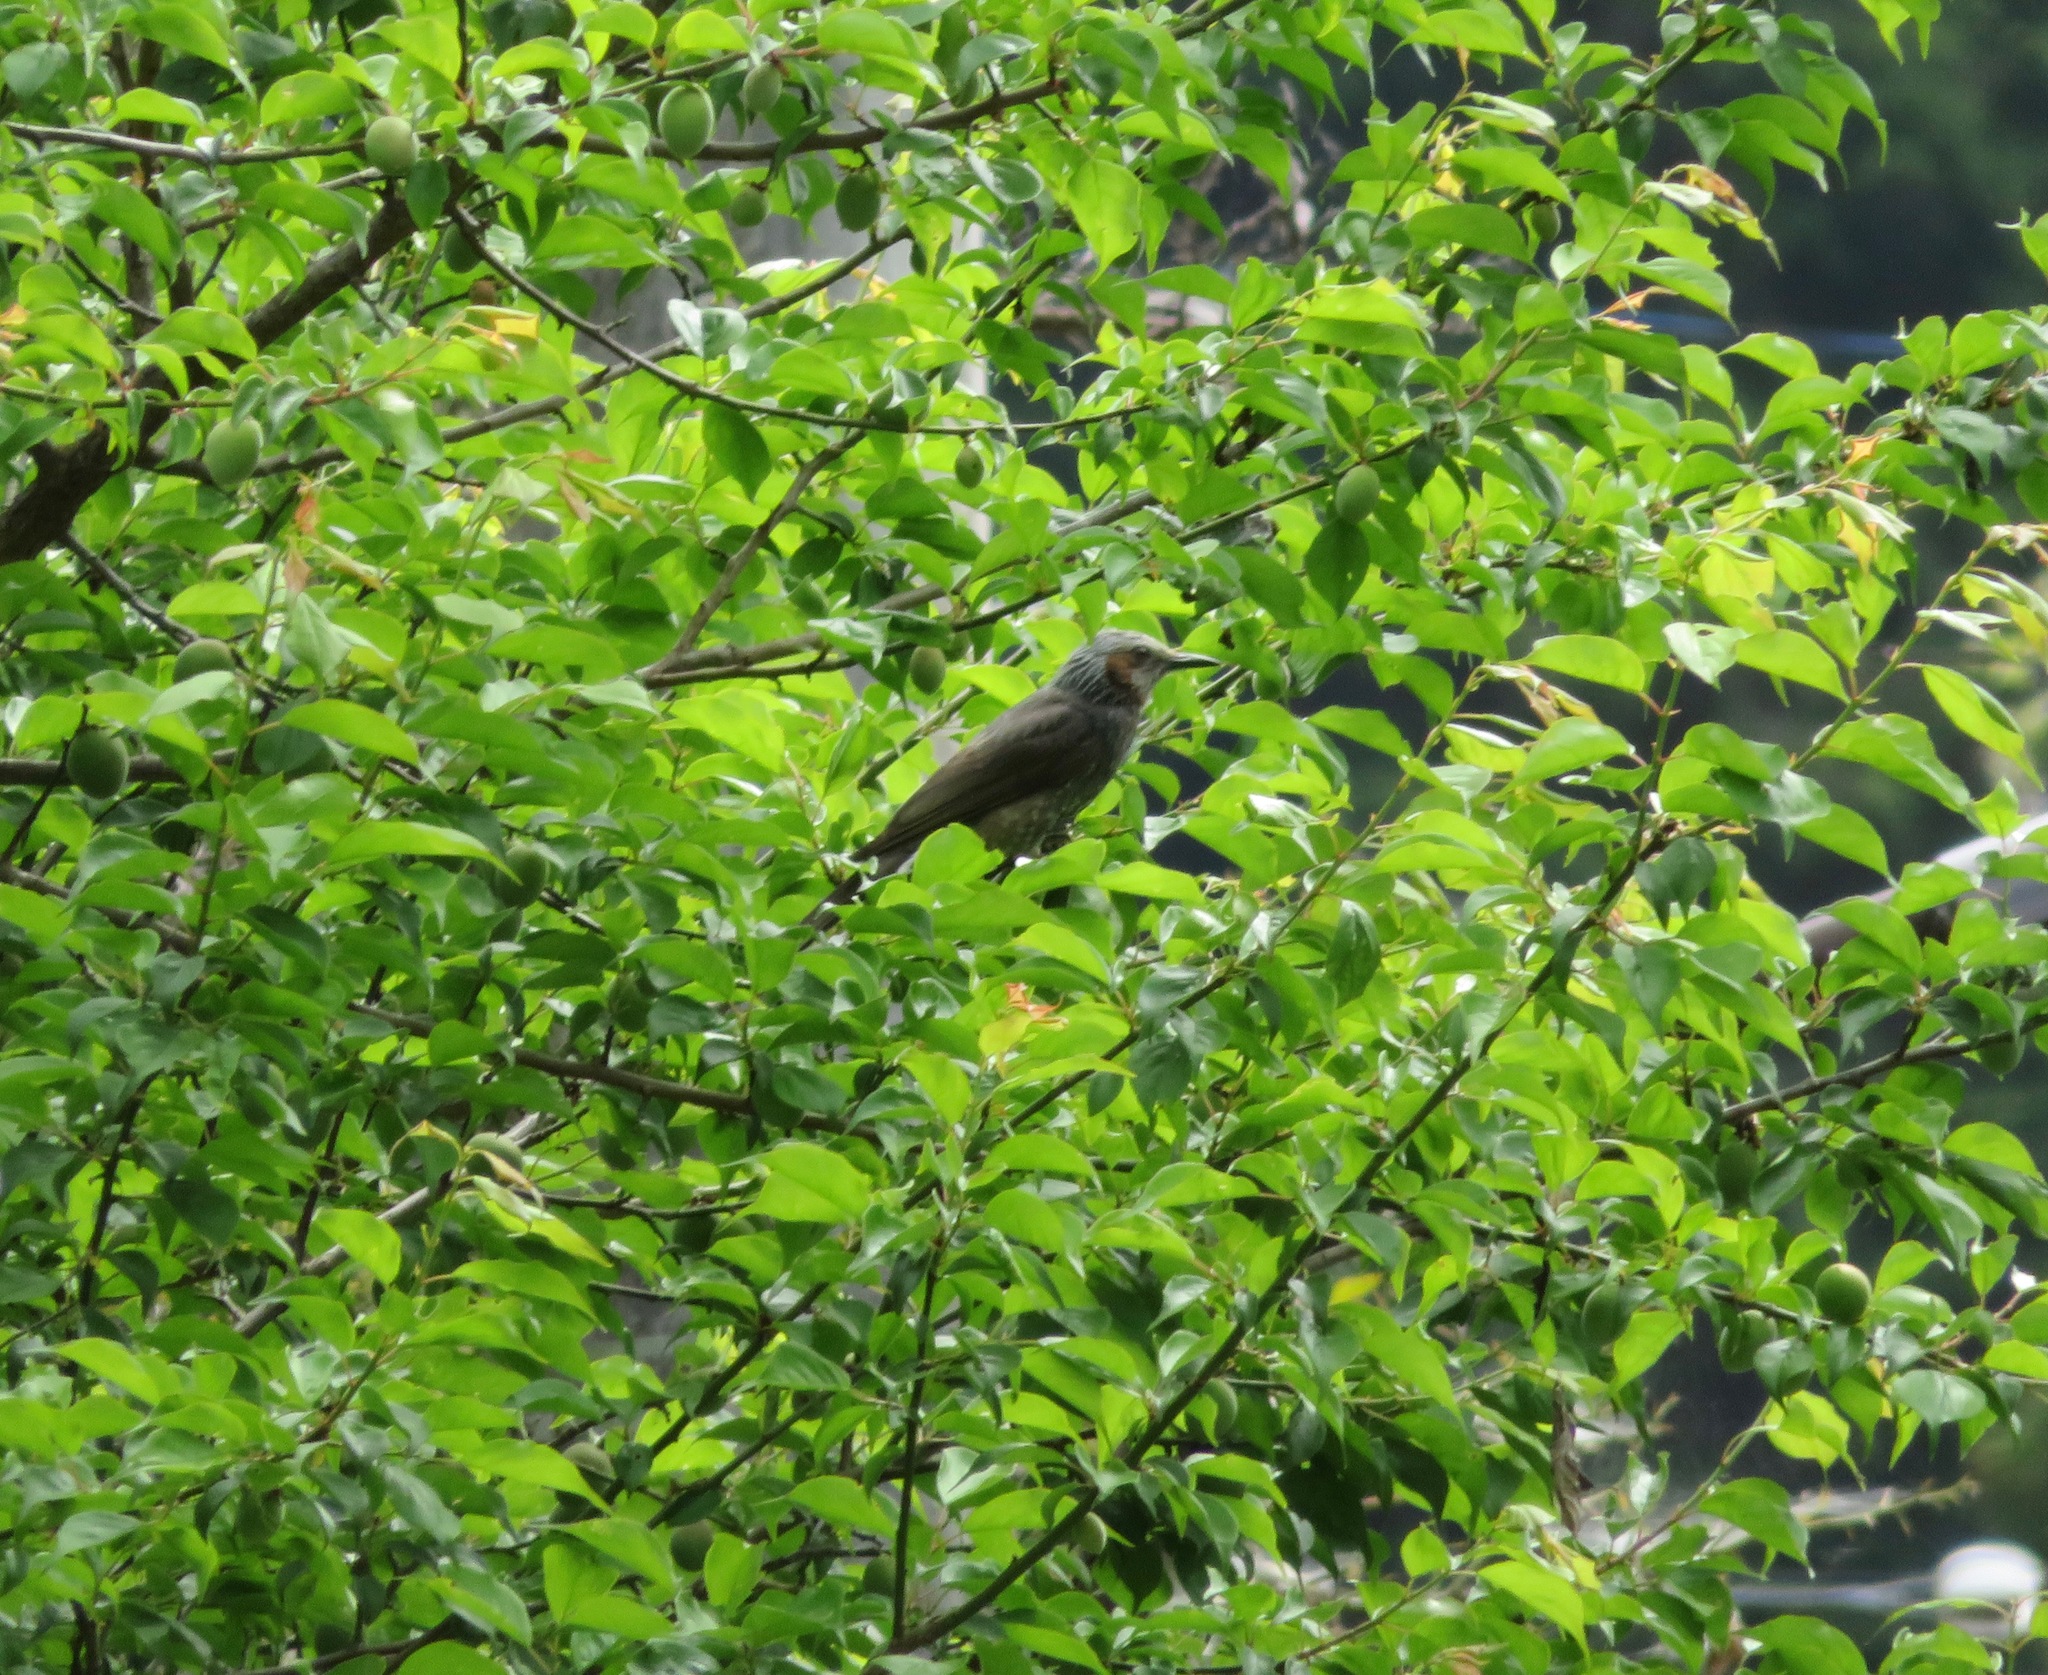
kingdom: Animalia
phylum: Chordata
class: Aves
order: Passeriformes
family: Pycnonotidae
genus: Hypsipetes
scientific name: Hypsipetes amaurotis
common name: Brown-eared bulbul
